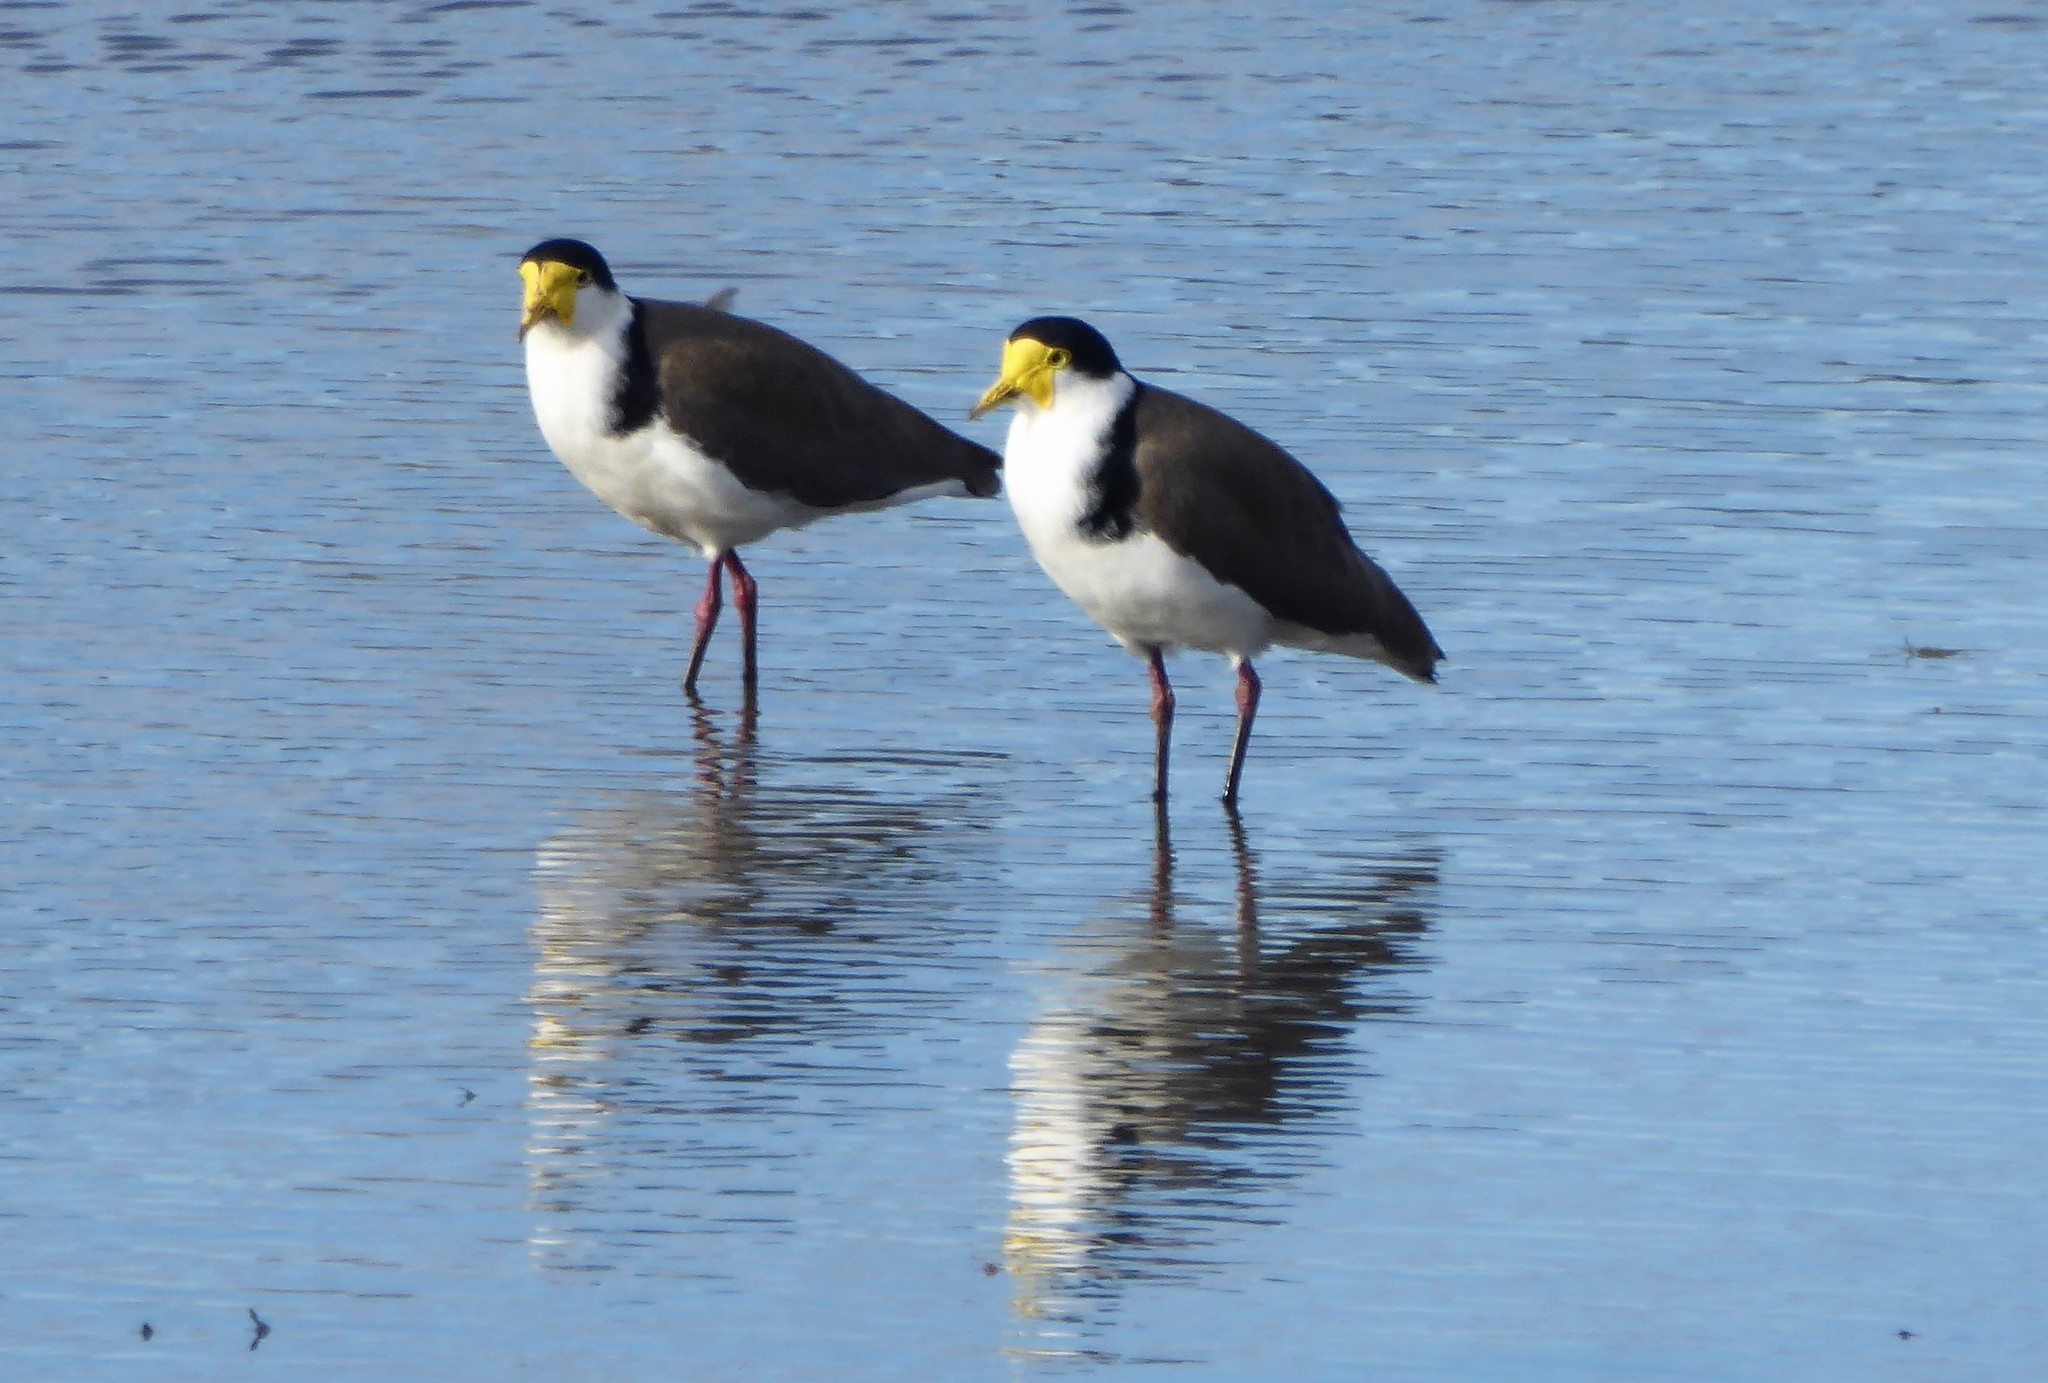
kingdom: Animalia
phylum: Chordata
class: Aves
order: Charadriiformes
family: Charadriidae
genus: Vanellus
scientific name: Vanellus miles
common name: Masked lapwing
